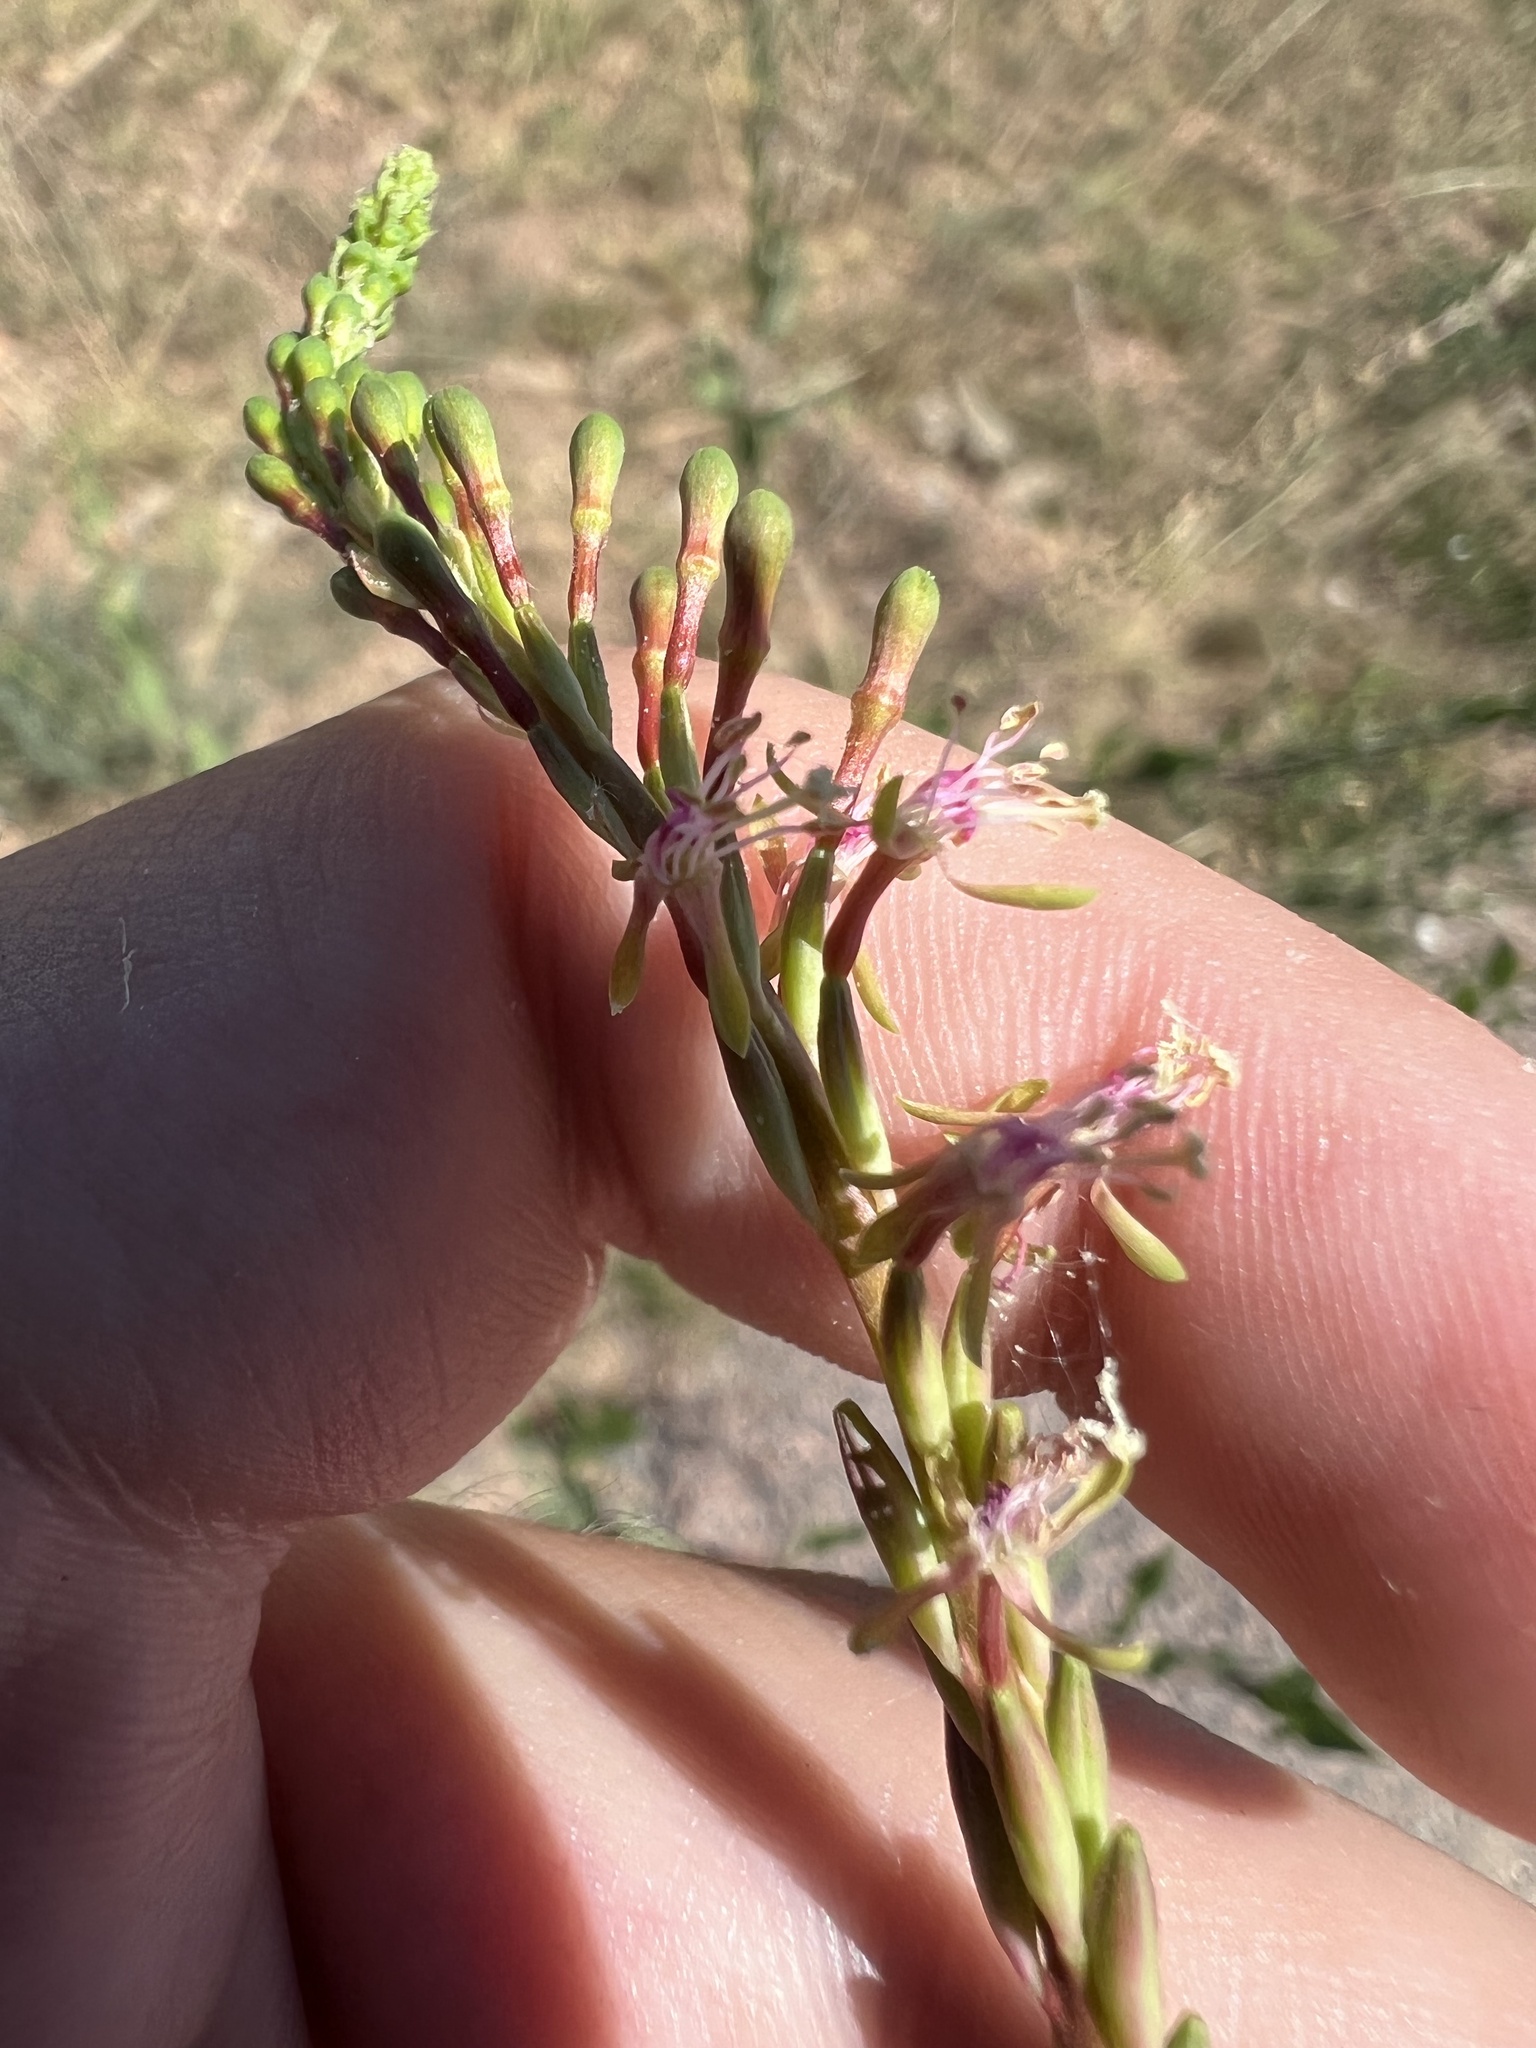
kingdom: Plantae
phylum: Tracheophyta
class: Magnoliopsida
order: Myrtales
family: Onagraceae
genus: Oenothera
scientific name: Oenothera curtiflora
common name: Velvetweed
